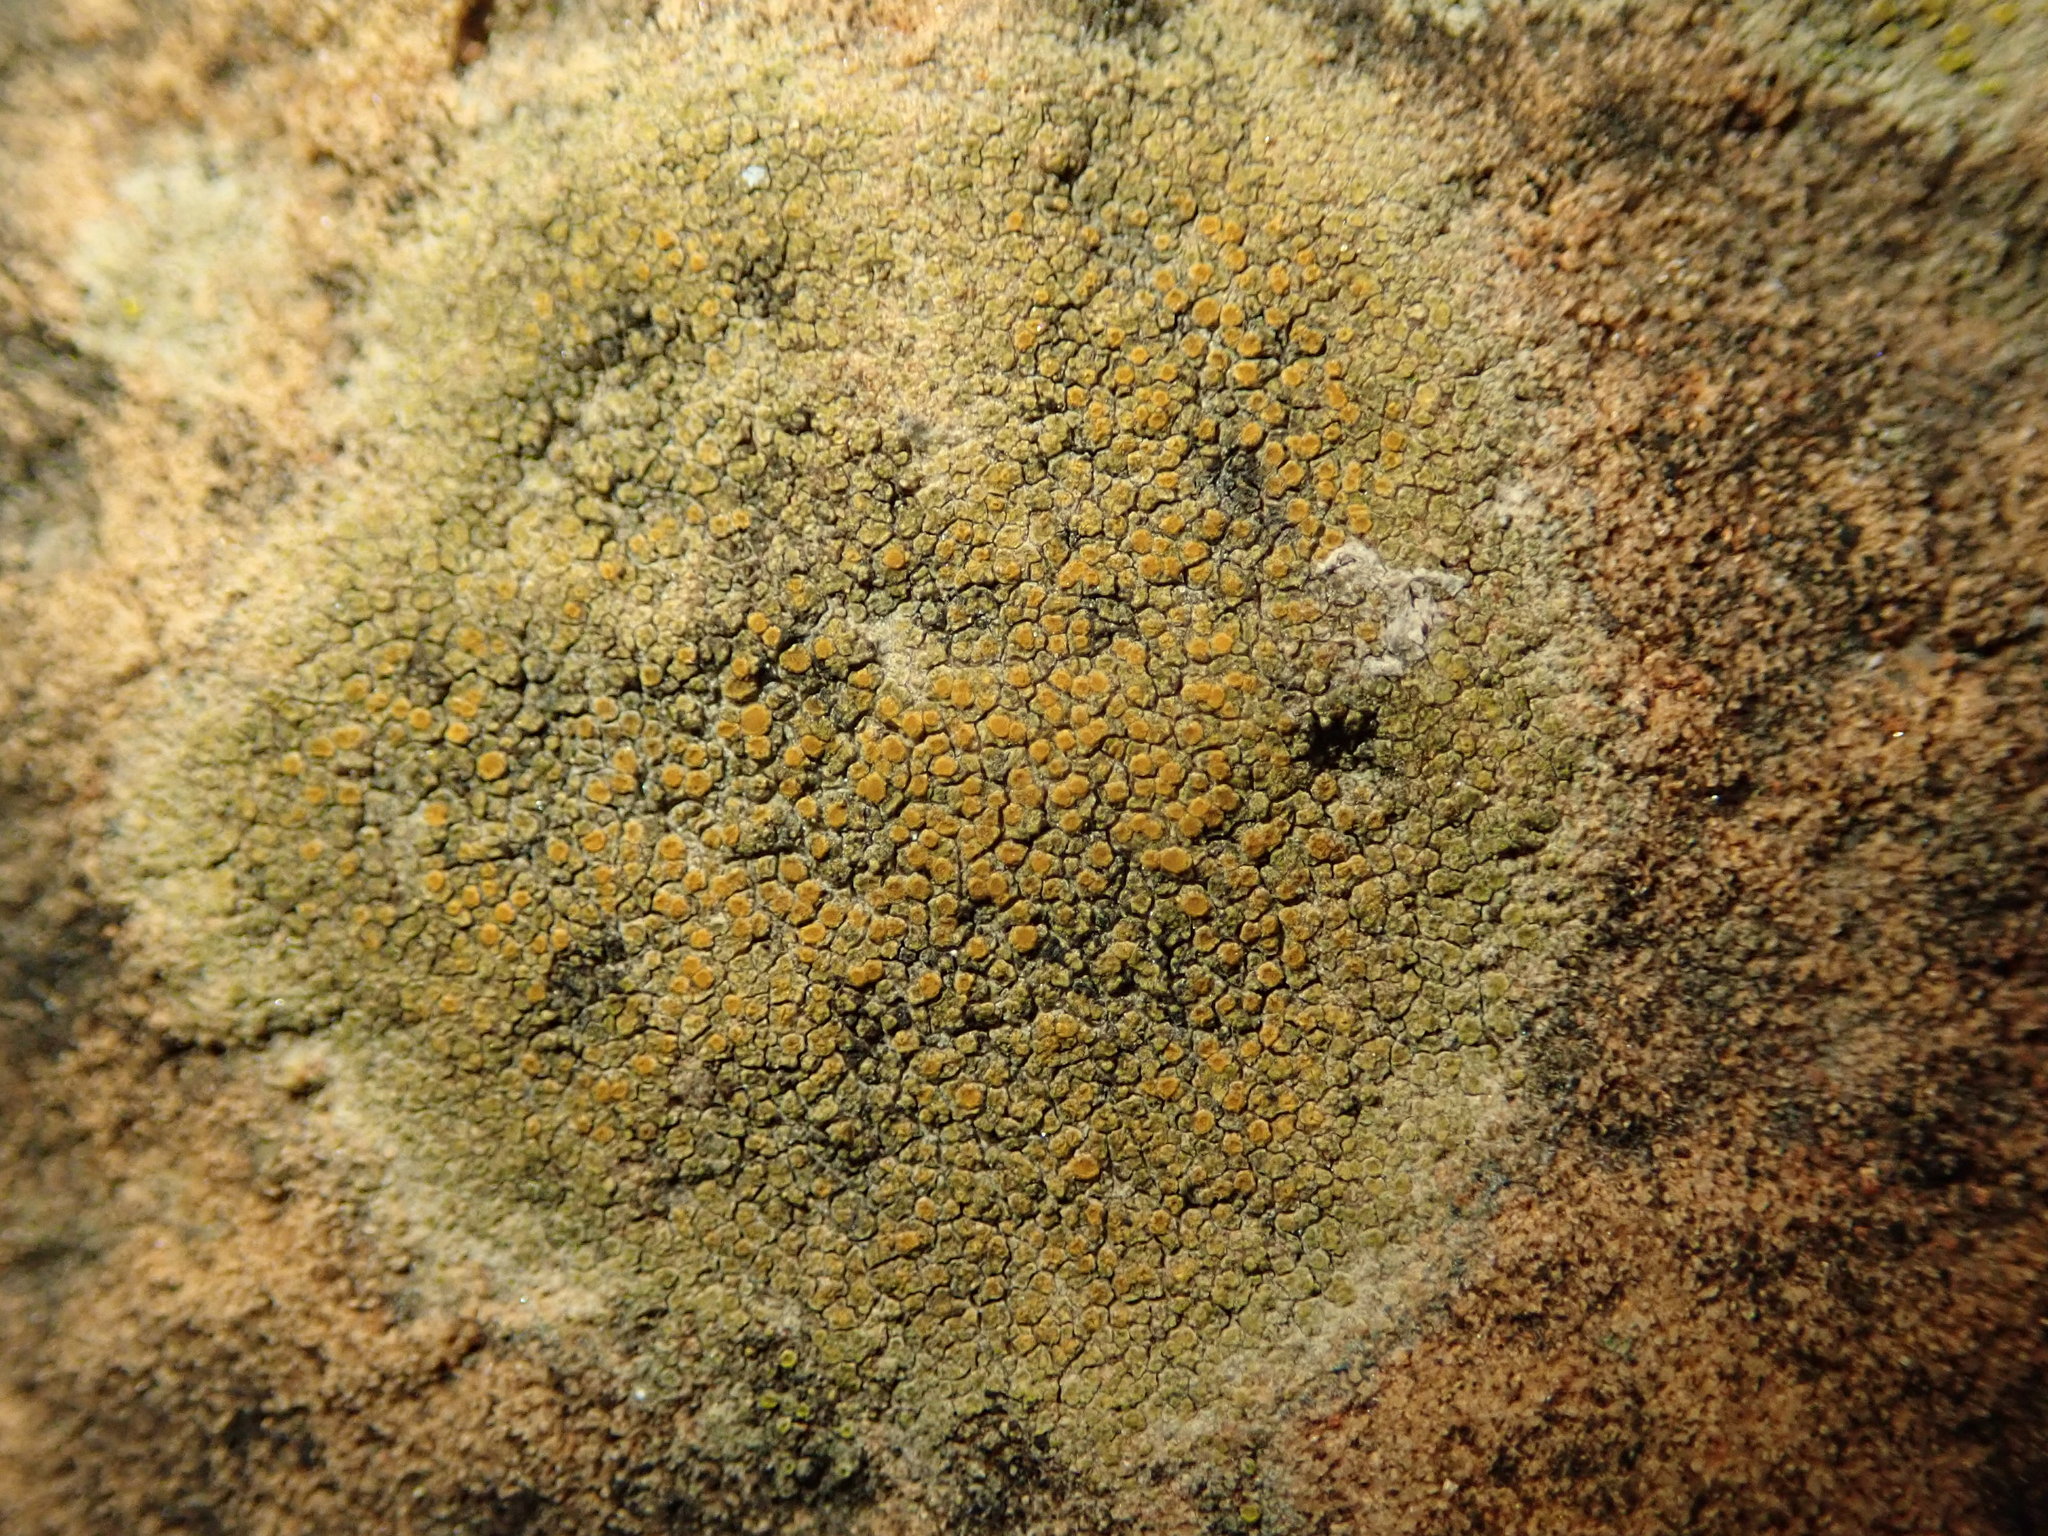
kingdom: Fungi
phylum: Ascomycota
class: Lecanoromycetes
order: Teloschistales
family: Teloschistaceae
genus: Xanthocarpia
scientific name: Xanthocarpia feracissima
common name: Sidewalk firedot
